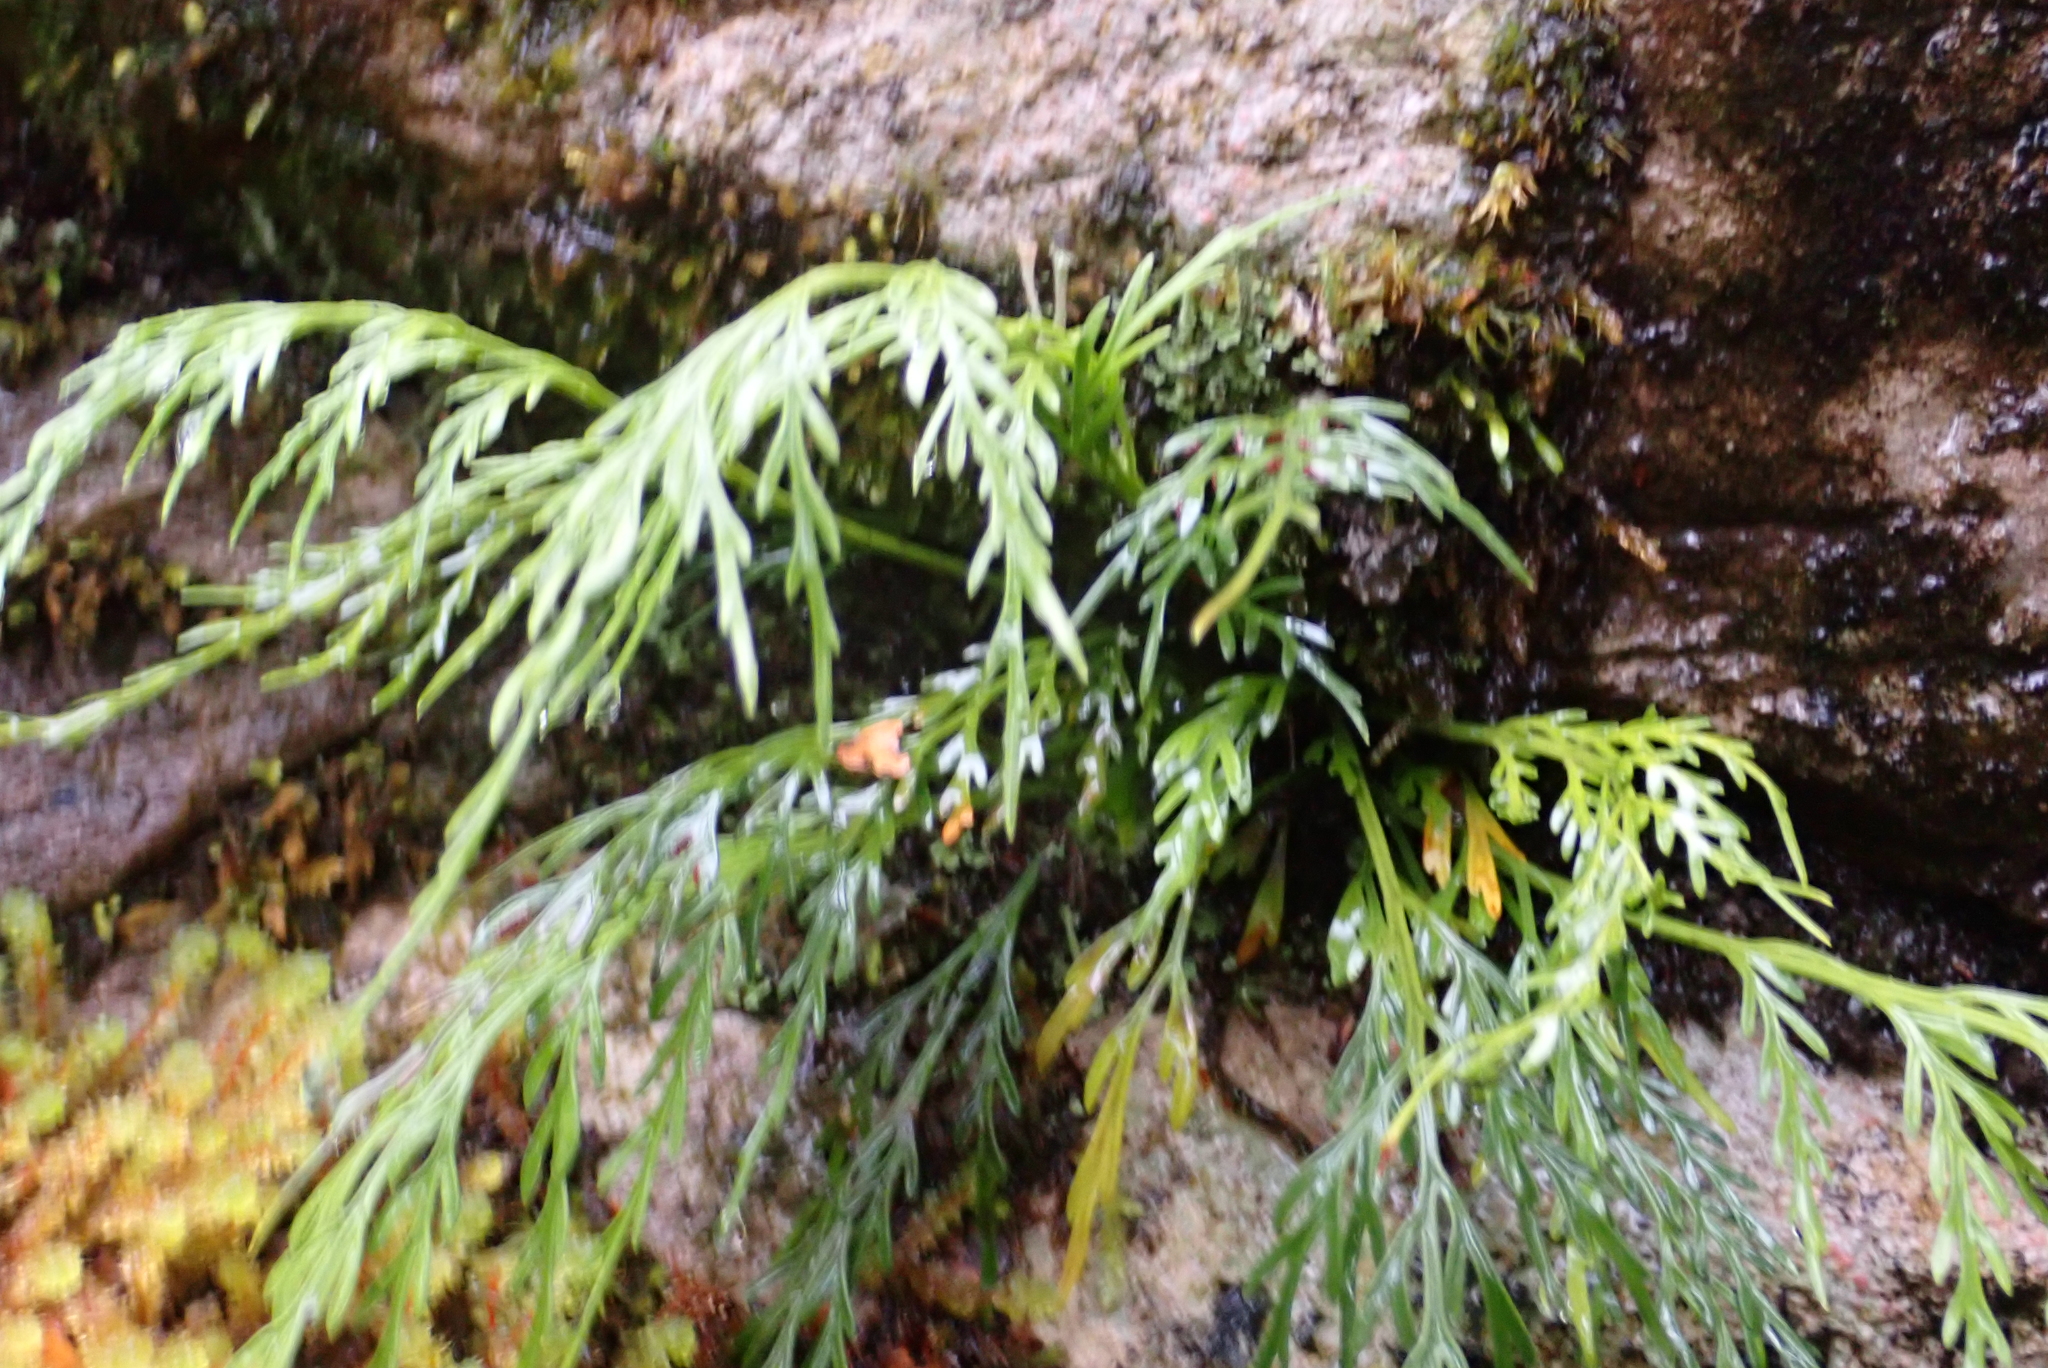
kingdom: Plantae
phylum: Tracheophyta
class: Polypodiopsida
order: Polypodiales
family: Aspleniaceae
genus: Asplenium
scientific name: Asplenium flaccidum
